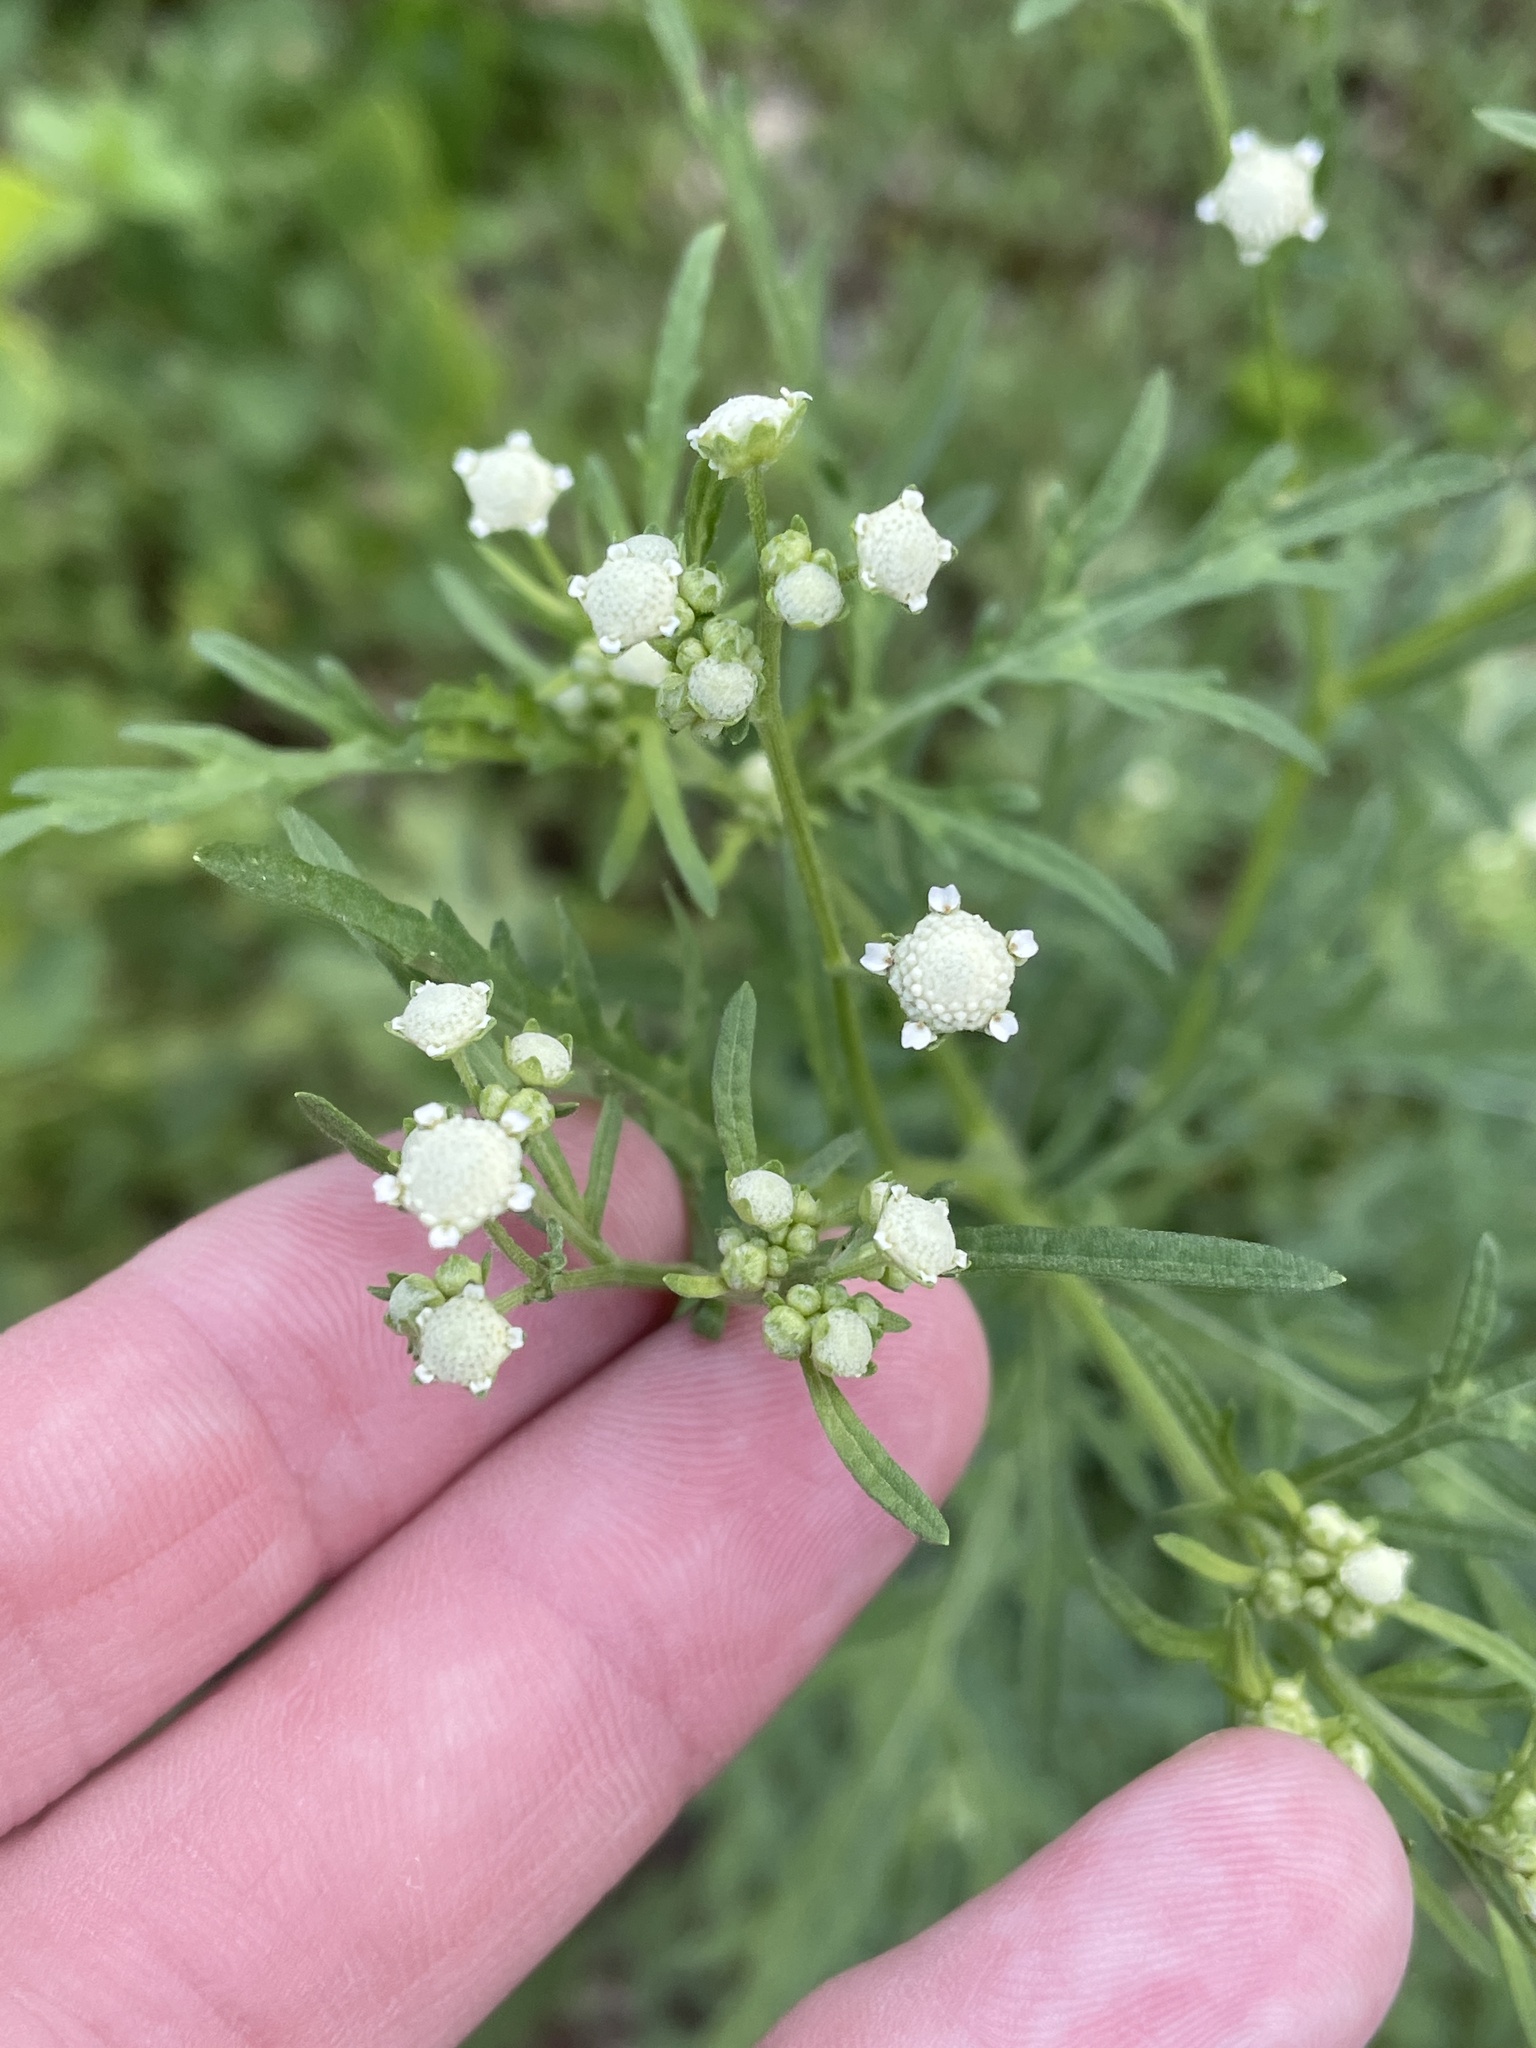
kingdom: Plantae
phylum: Tracheophyta
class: Magnoliopsida
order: Asterales
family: Asteraceae
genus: Parthenium
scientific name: Parthenium hysterophorus
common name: Santa maria feverfew
